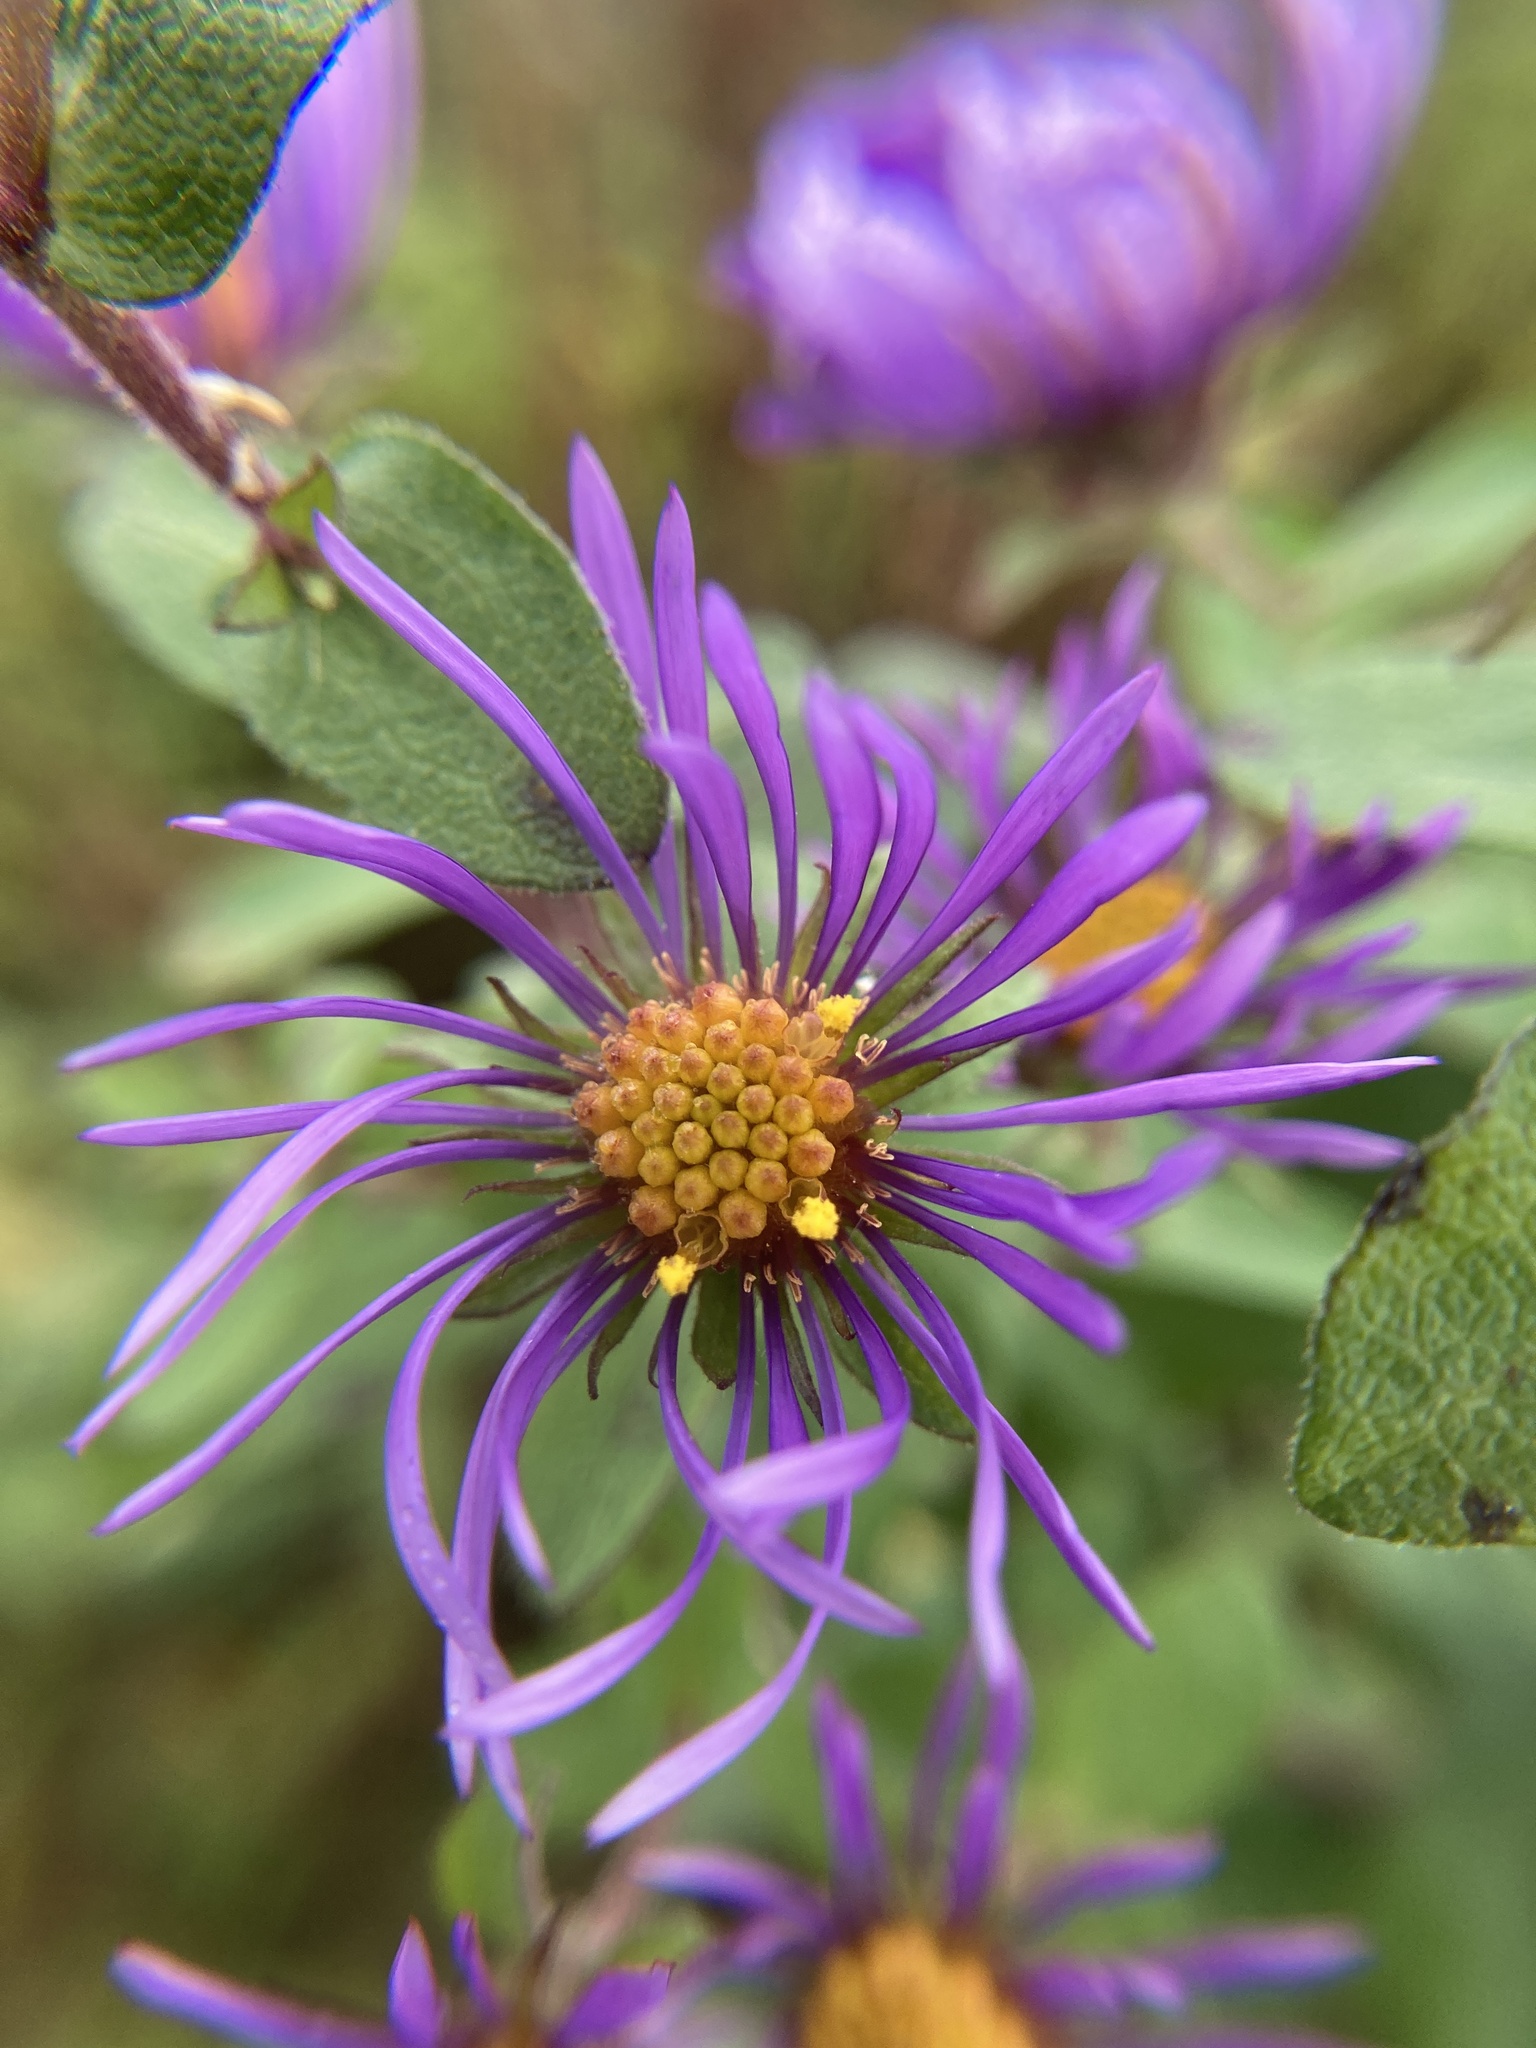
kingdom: Plantae
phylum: Tracheophyta
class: Magnoliopsida
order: Asterales
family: Asteraceae
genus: Symphyotrichum
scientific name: Symphyotrichum novae-angliae
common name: Michaelmas daisy
